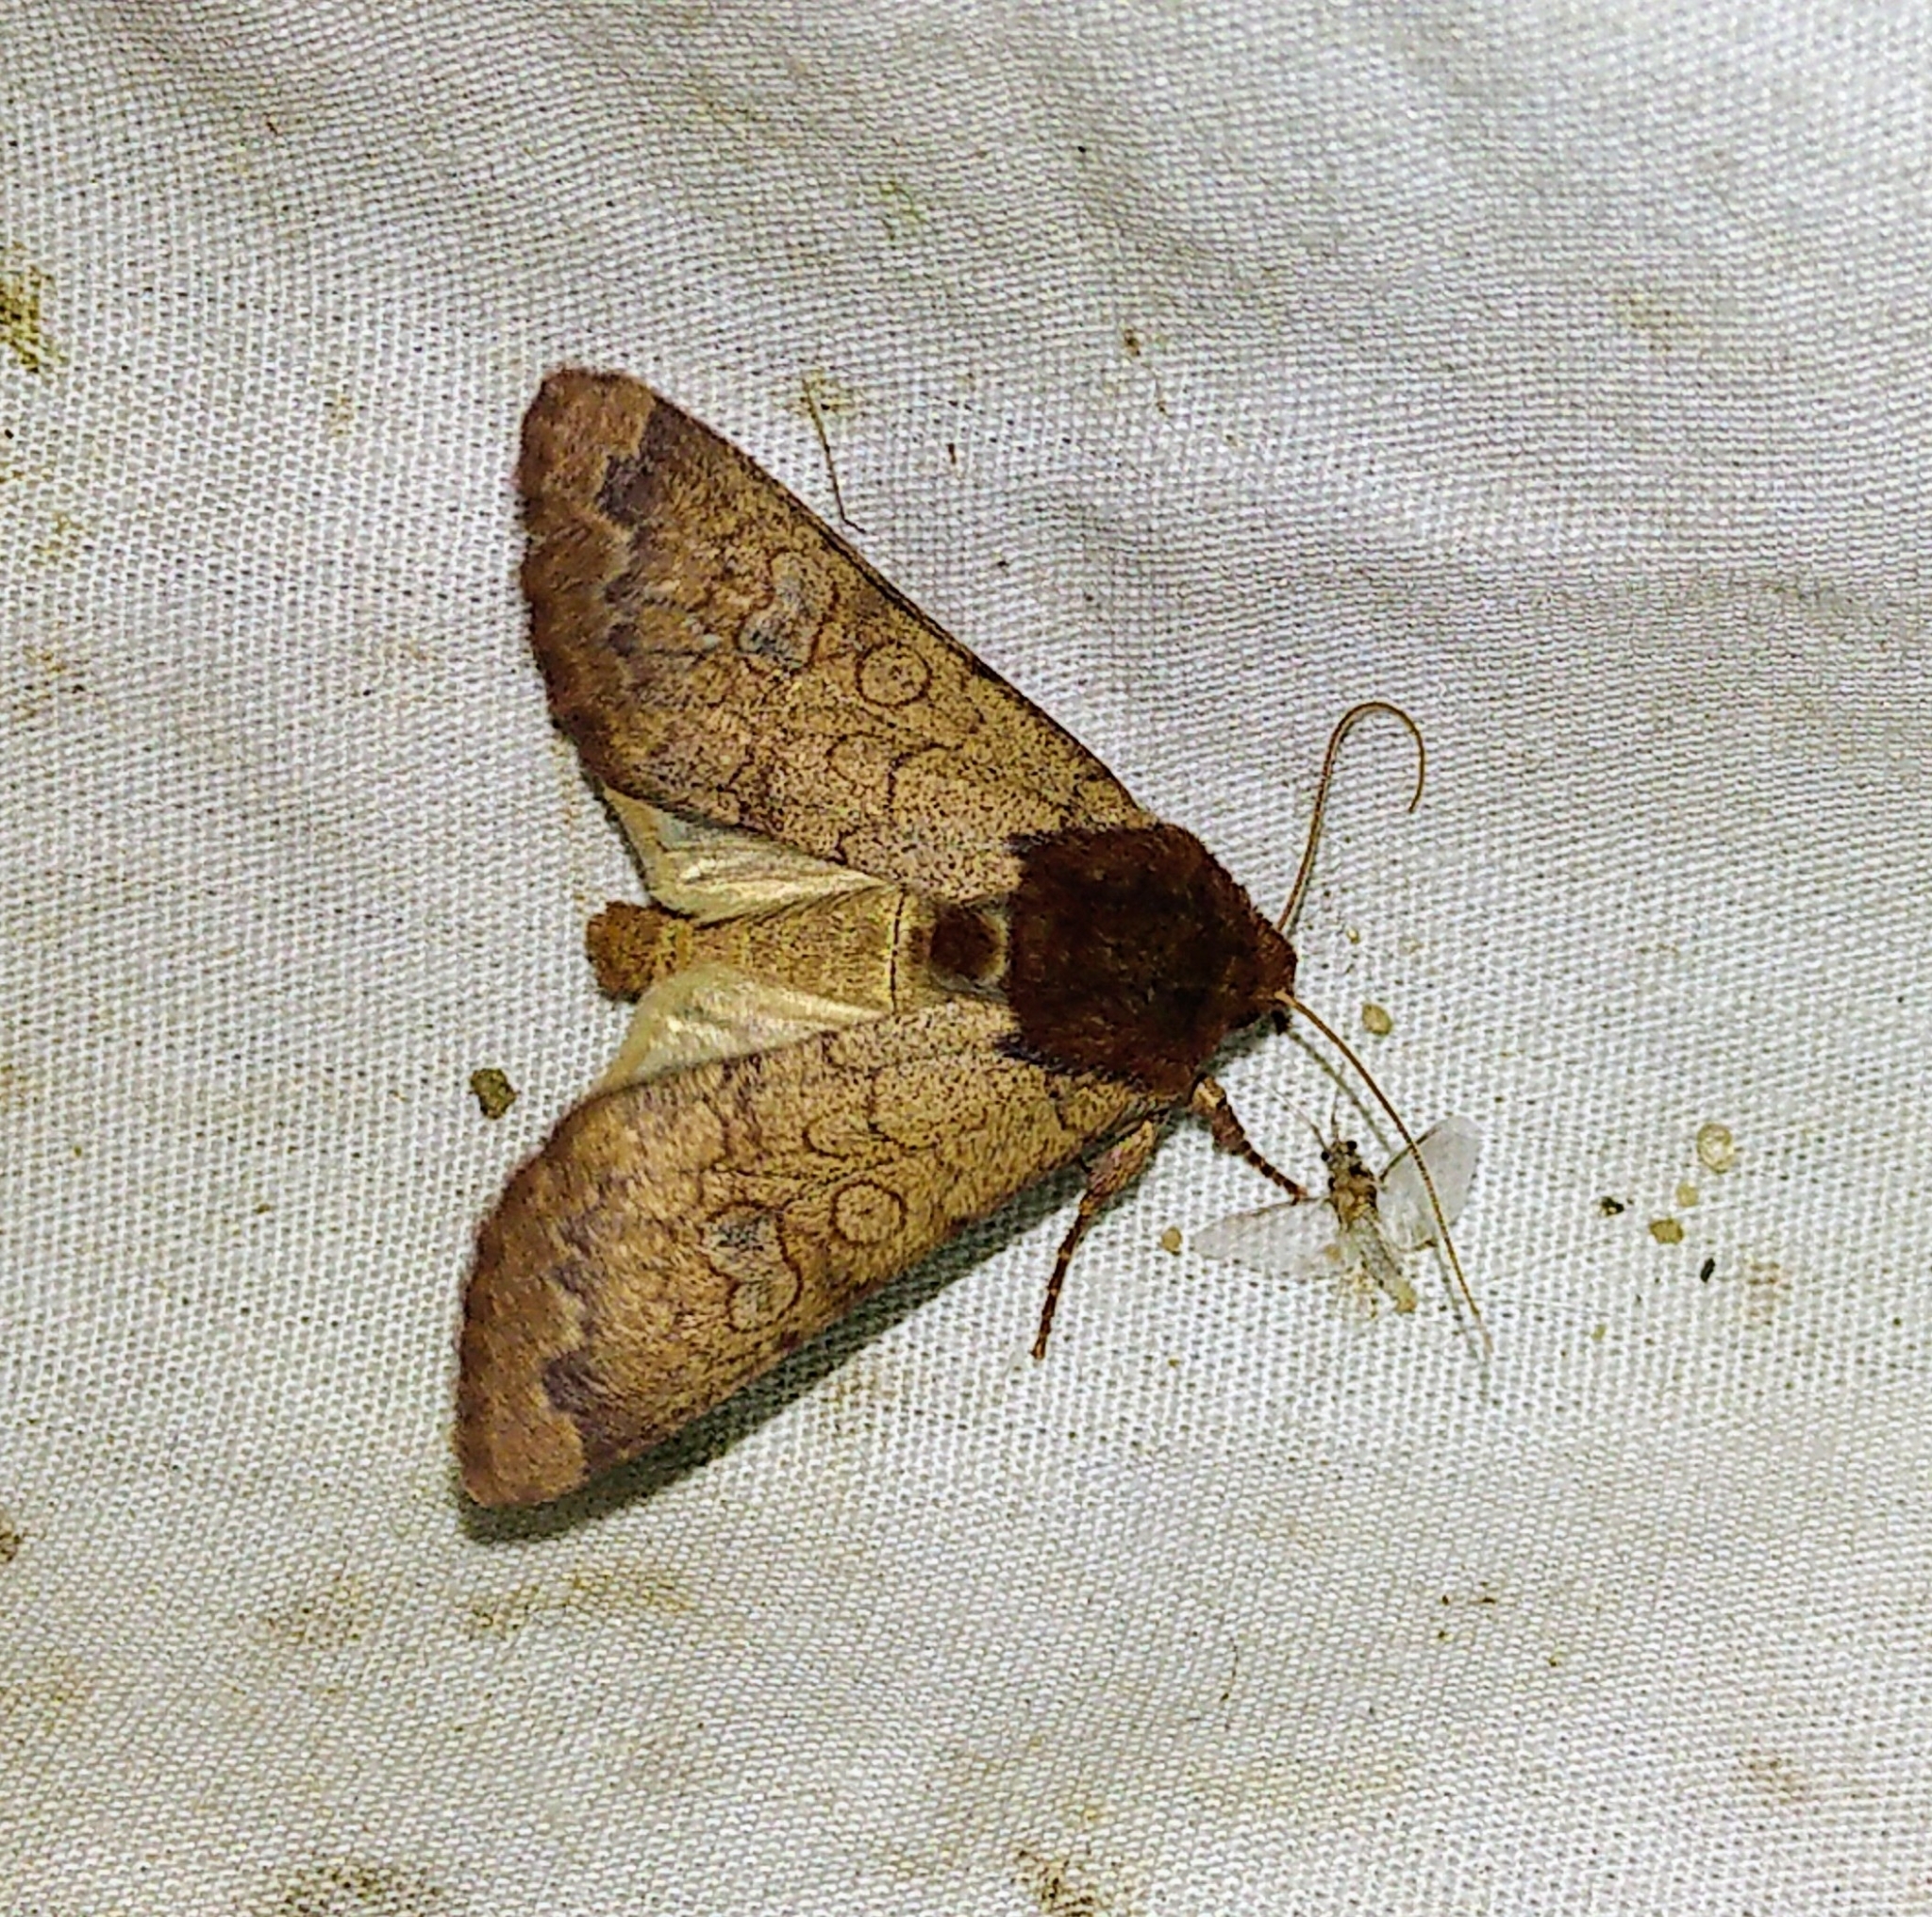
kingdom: Animalia
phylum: Arthropoda
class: Insecta
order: Lepidoptera
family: Noctuidae
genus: Sideridis
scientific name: Sideridis rosea
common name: Rosewing moth
